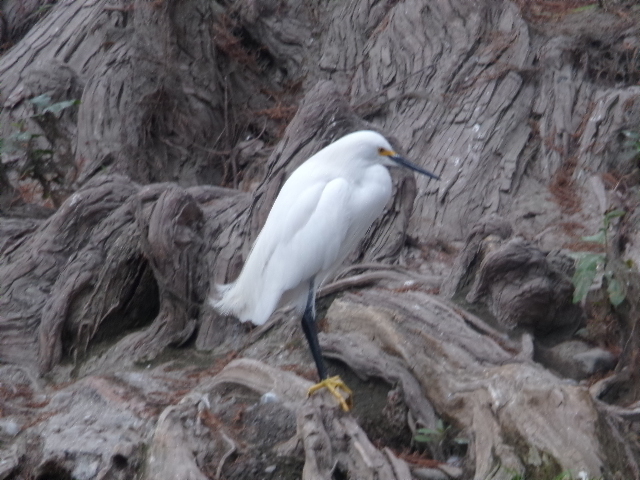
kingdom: Animalia
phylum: Chordata
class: Aves
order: Pelecaniformes
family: Ardeidae
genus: Egretta
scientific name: Egretta thula
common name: Snowy egret
